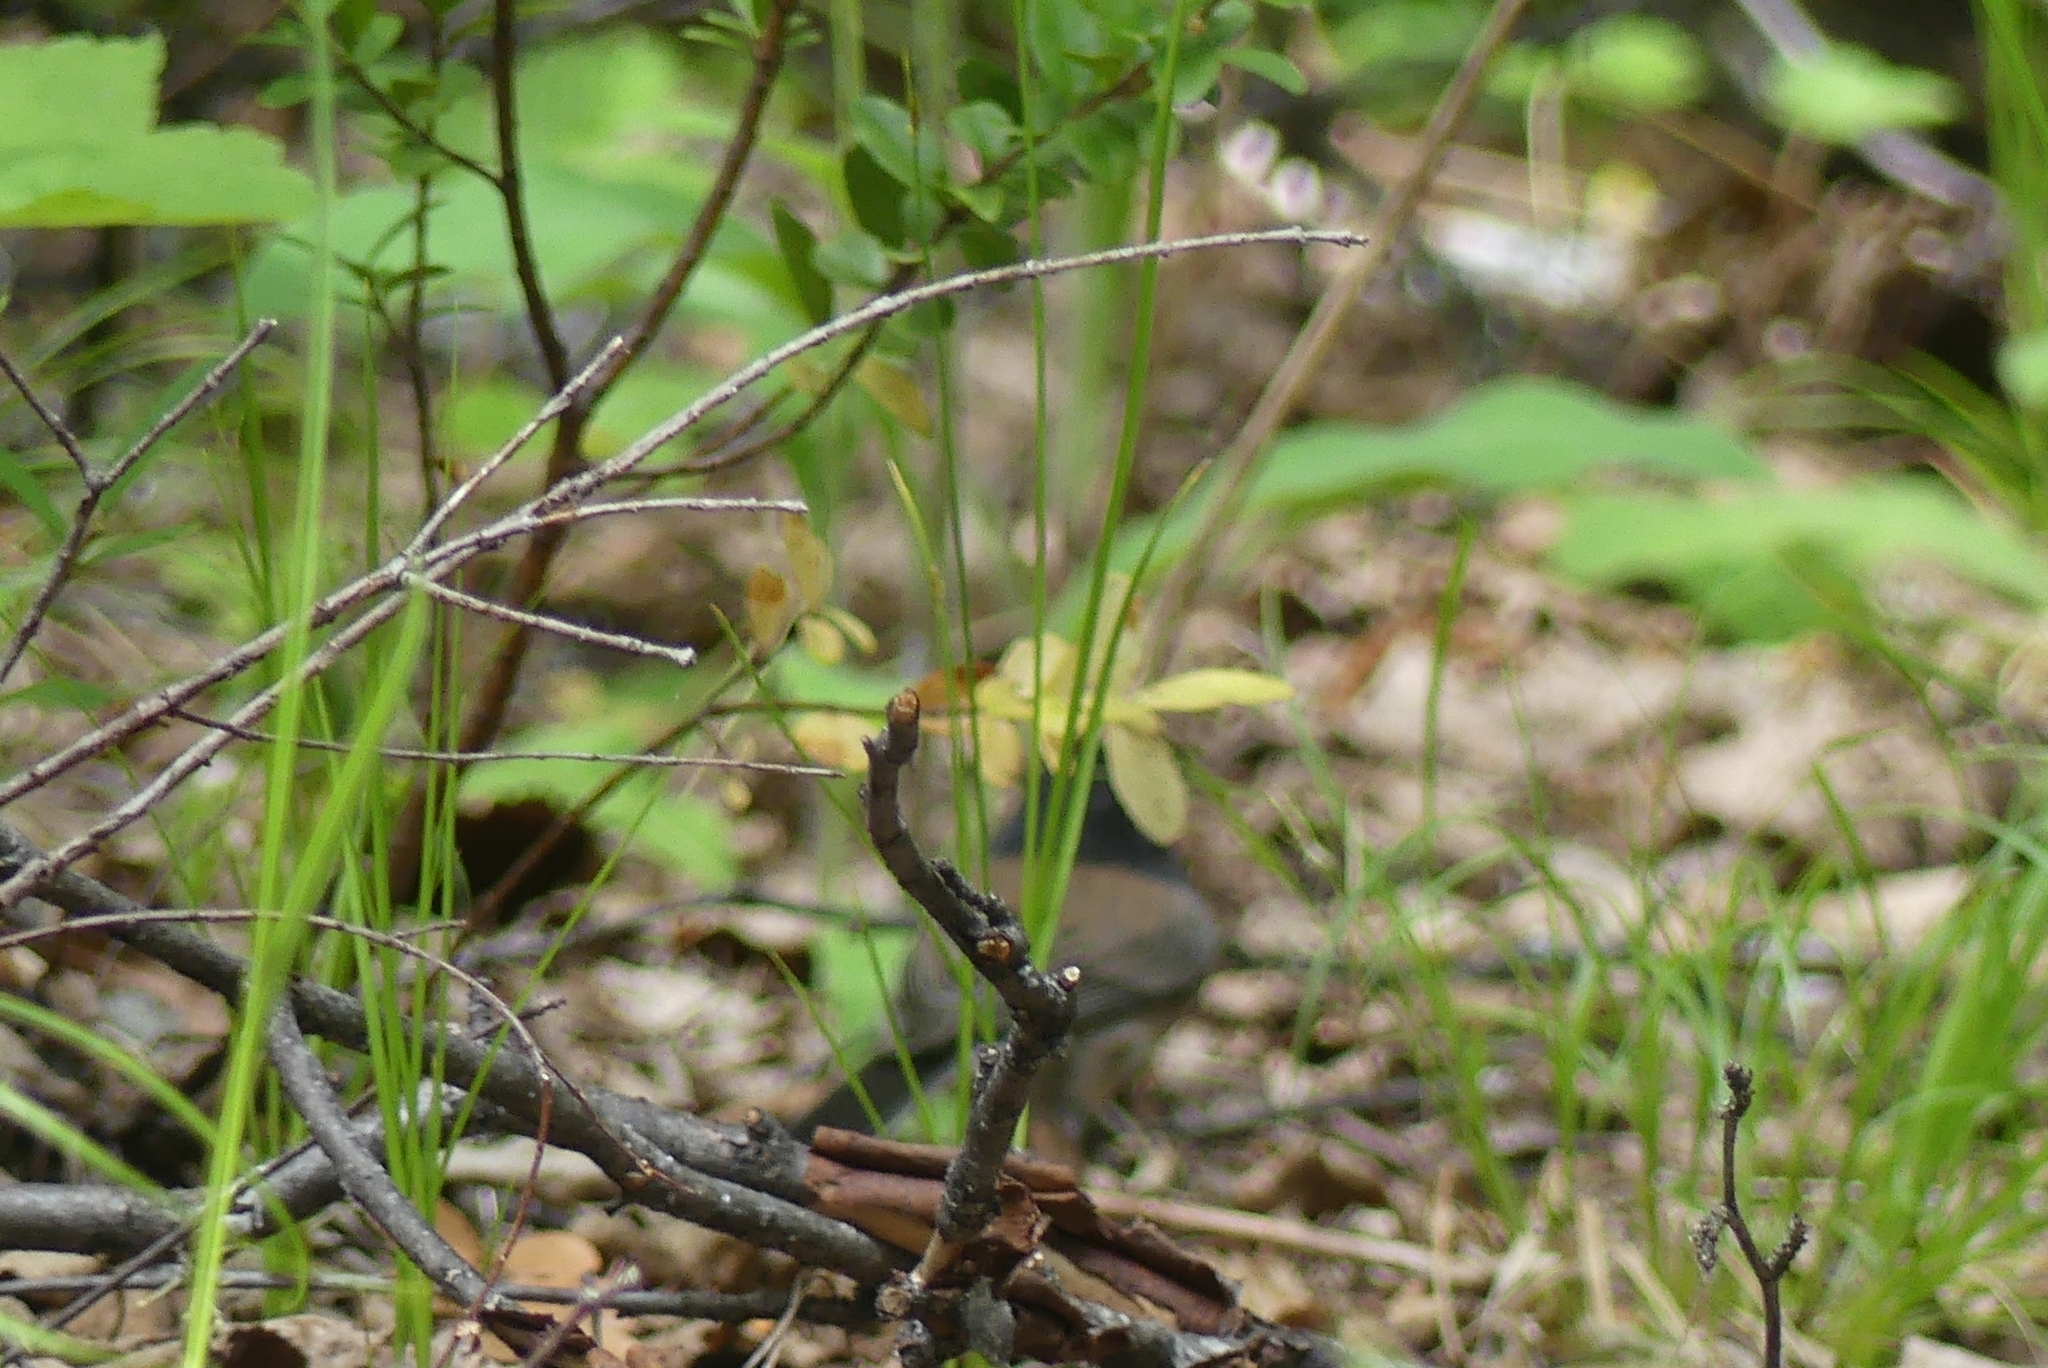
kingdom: Animalia
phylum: Chordata
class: Aves
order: Passeriformes
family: Passerellidae
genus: Junco
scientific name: Junco hyemalis
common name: Dark-eyed junco
